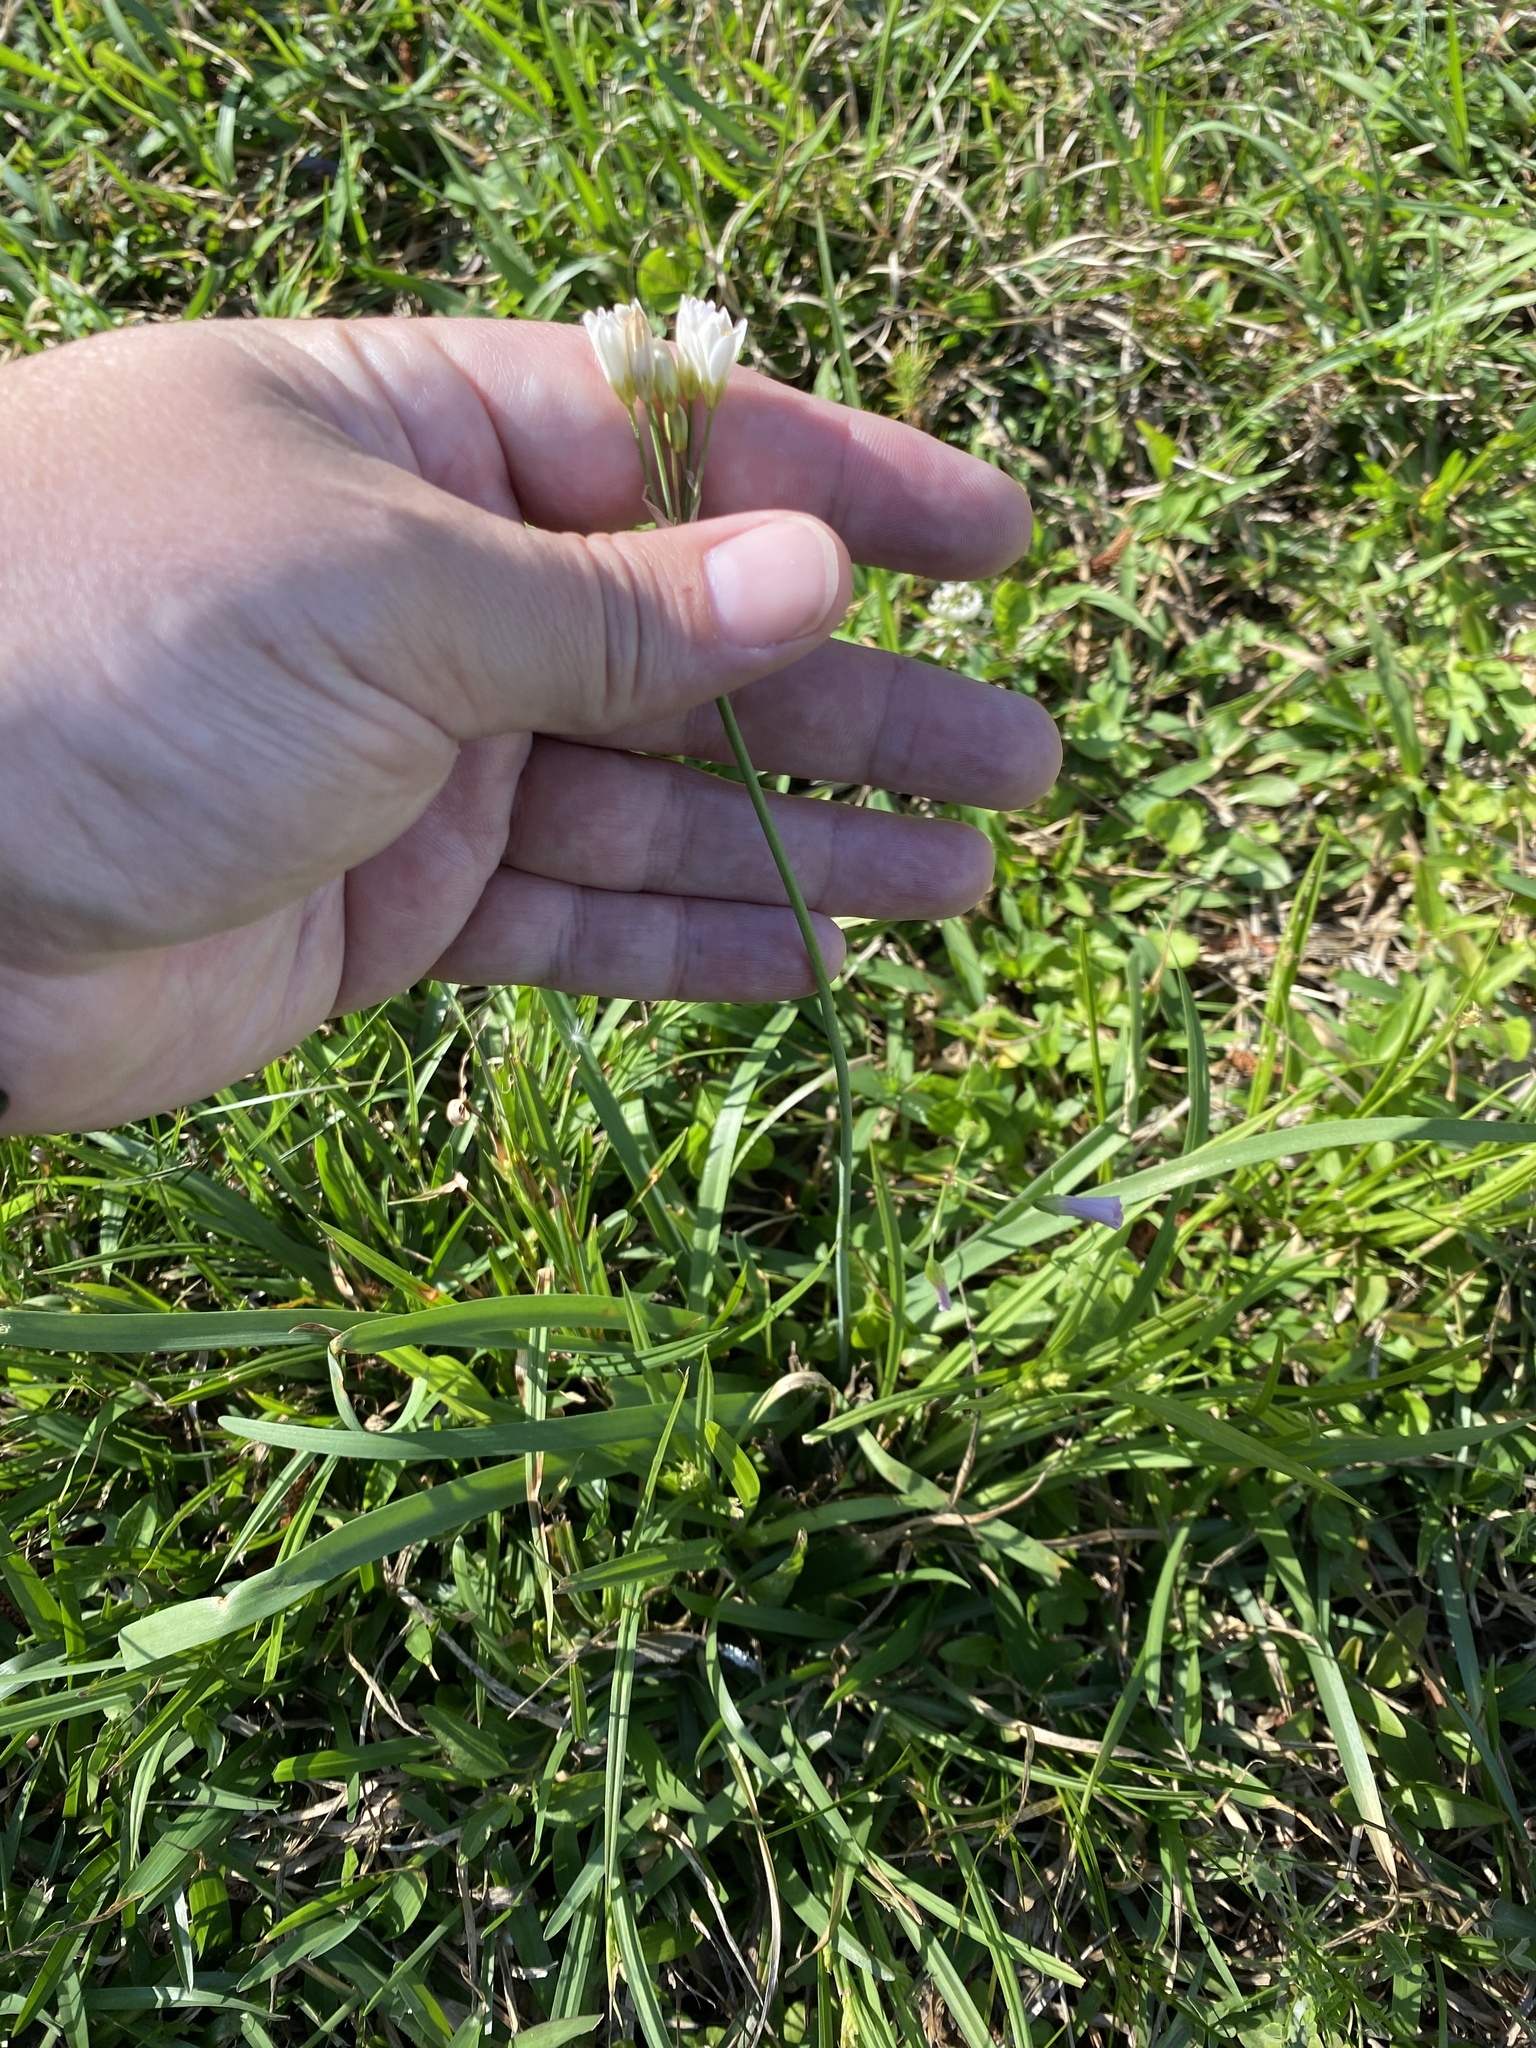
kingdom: Plantae
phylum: Tracheophyta
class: Liliopsida
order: Asparagales
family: Amaryllidaceae
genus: Nothoscordum
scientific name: Nothoscordum bivalve
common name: Crow-poison
